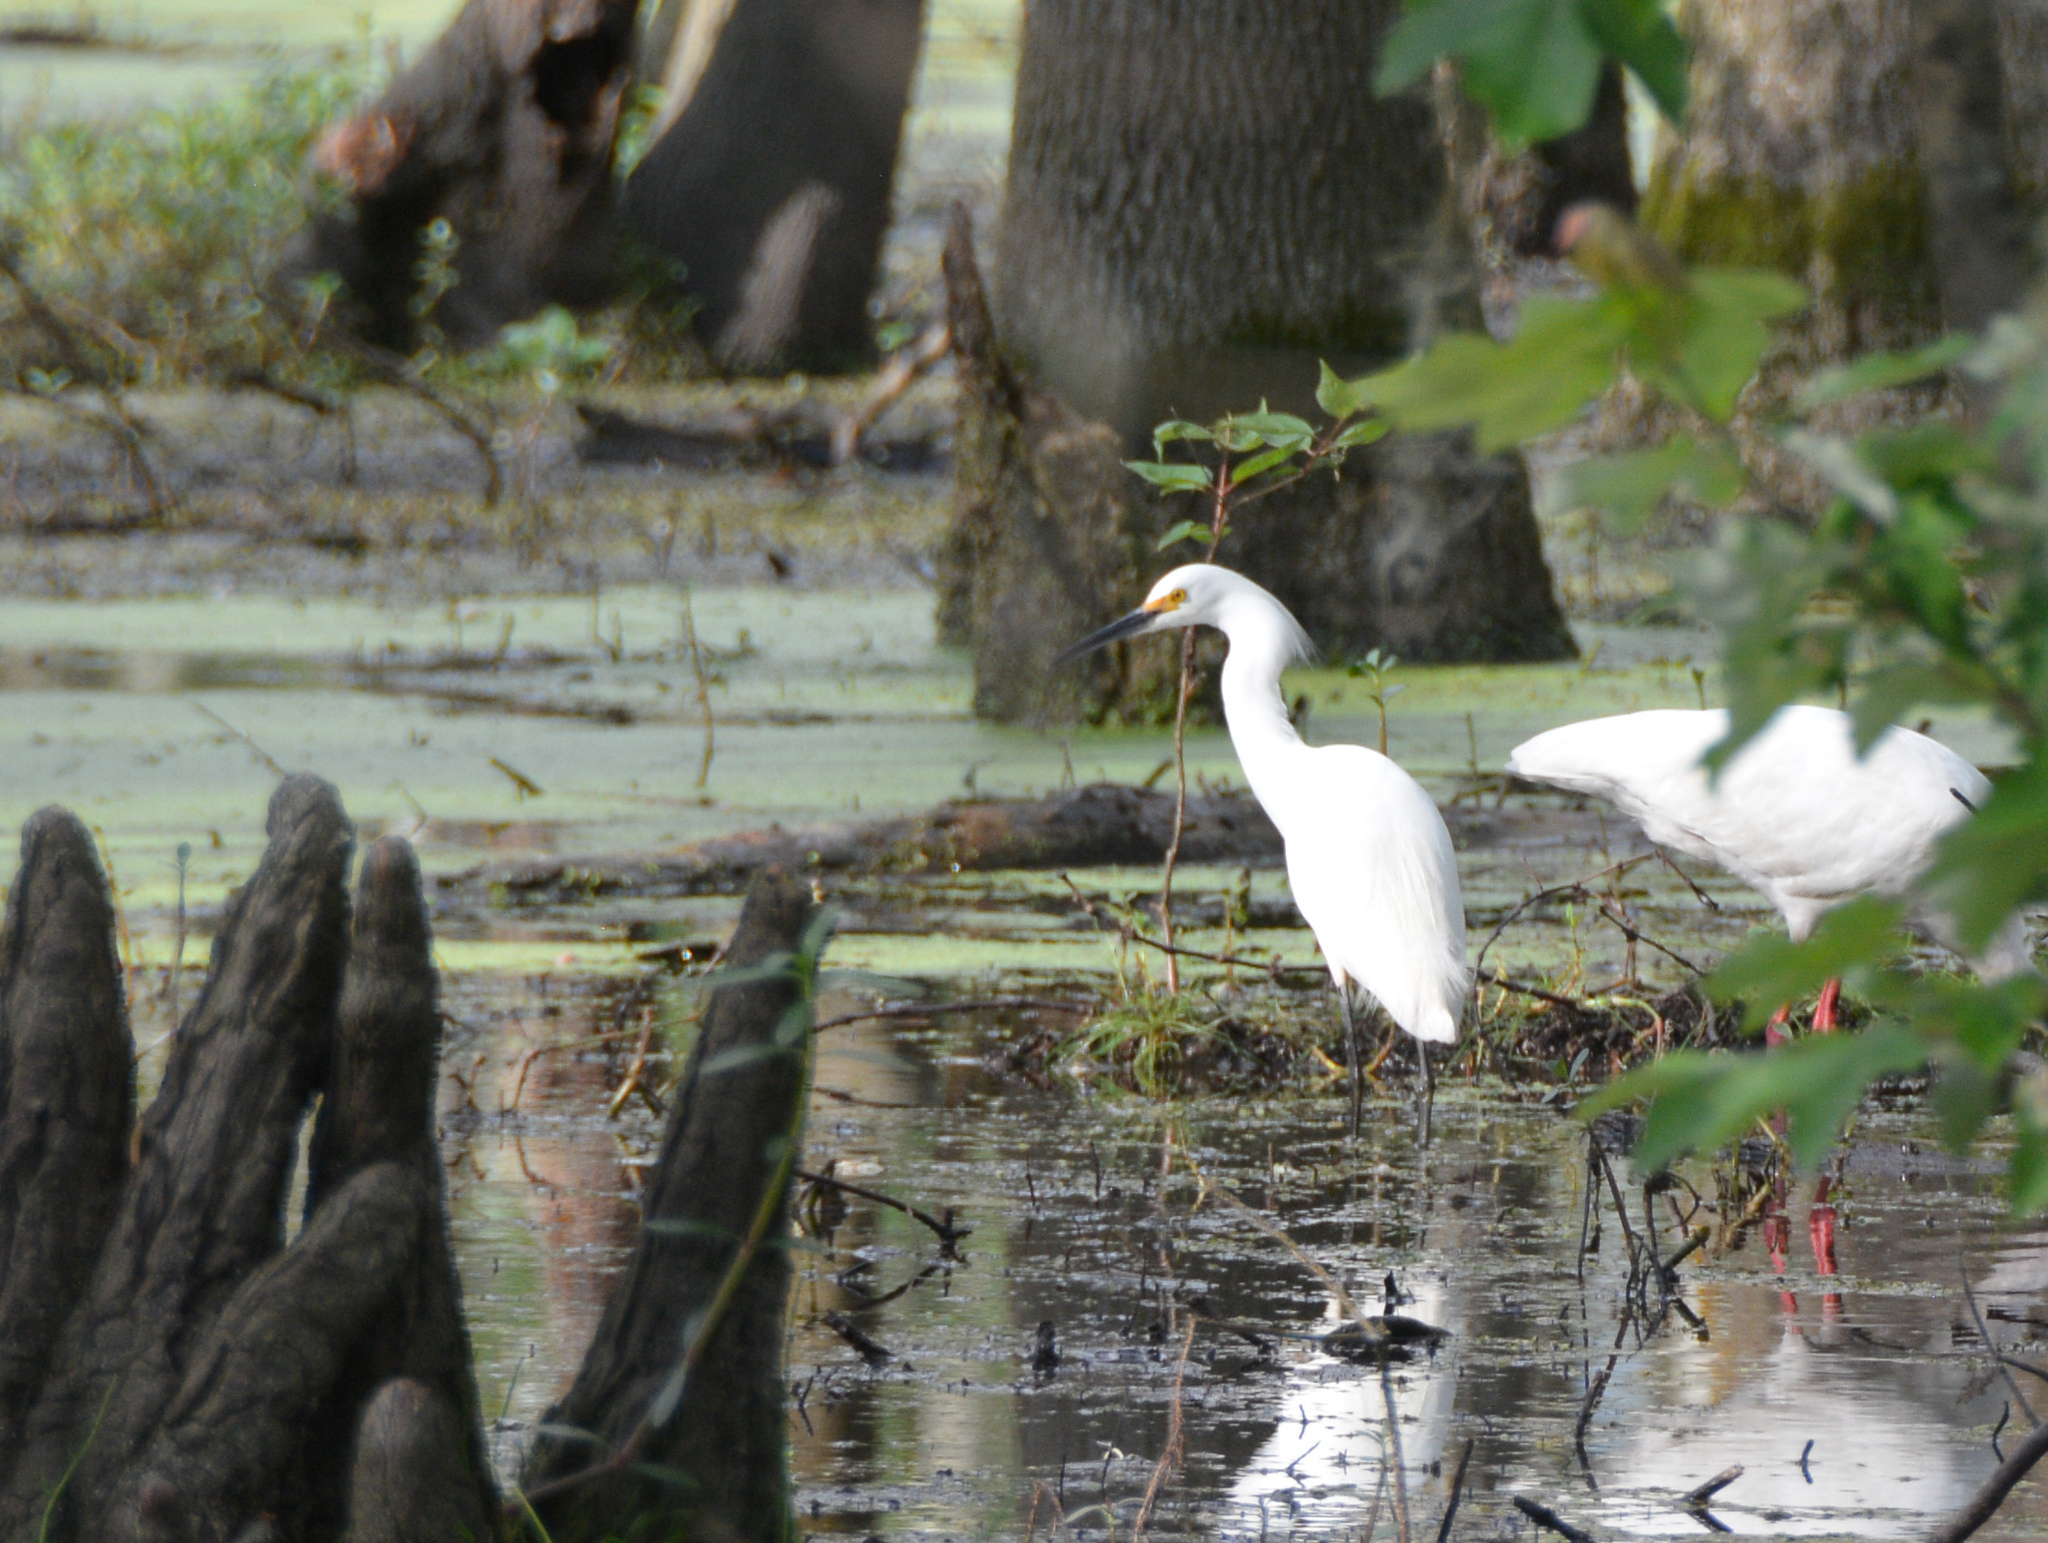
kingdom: Animalia
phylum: Chordata
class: Aves
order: Pelecaniformes
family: Ardeidae
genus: Egretta
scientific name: Egretta thula
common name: Snowy egret
